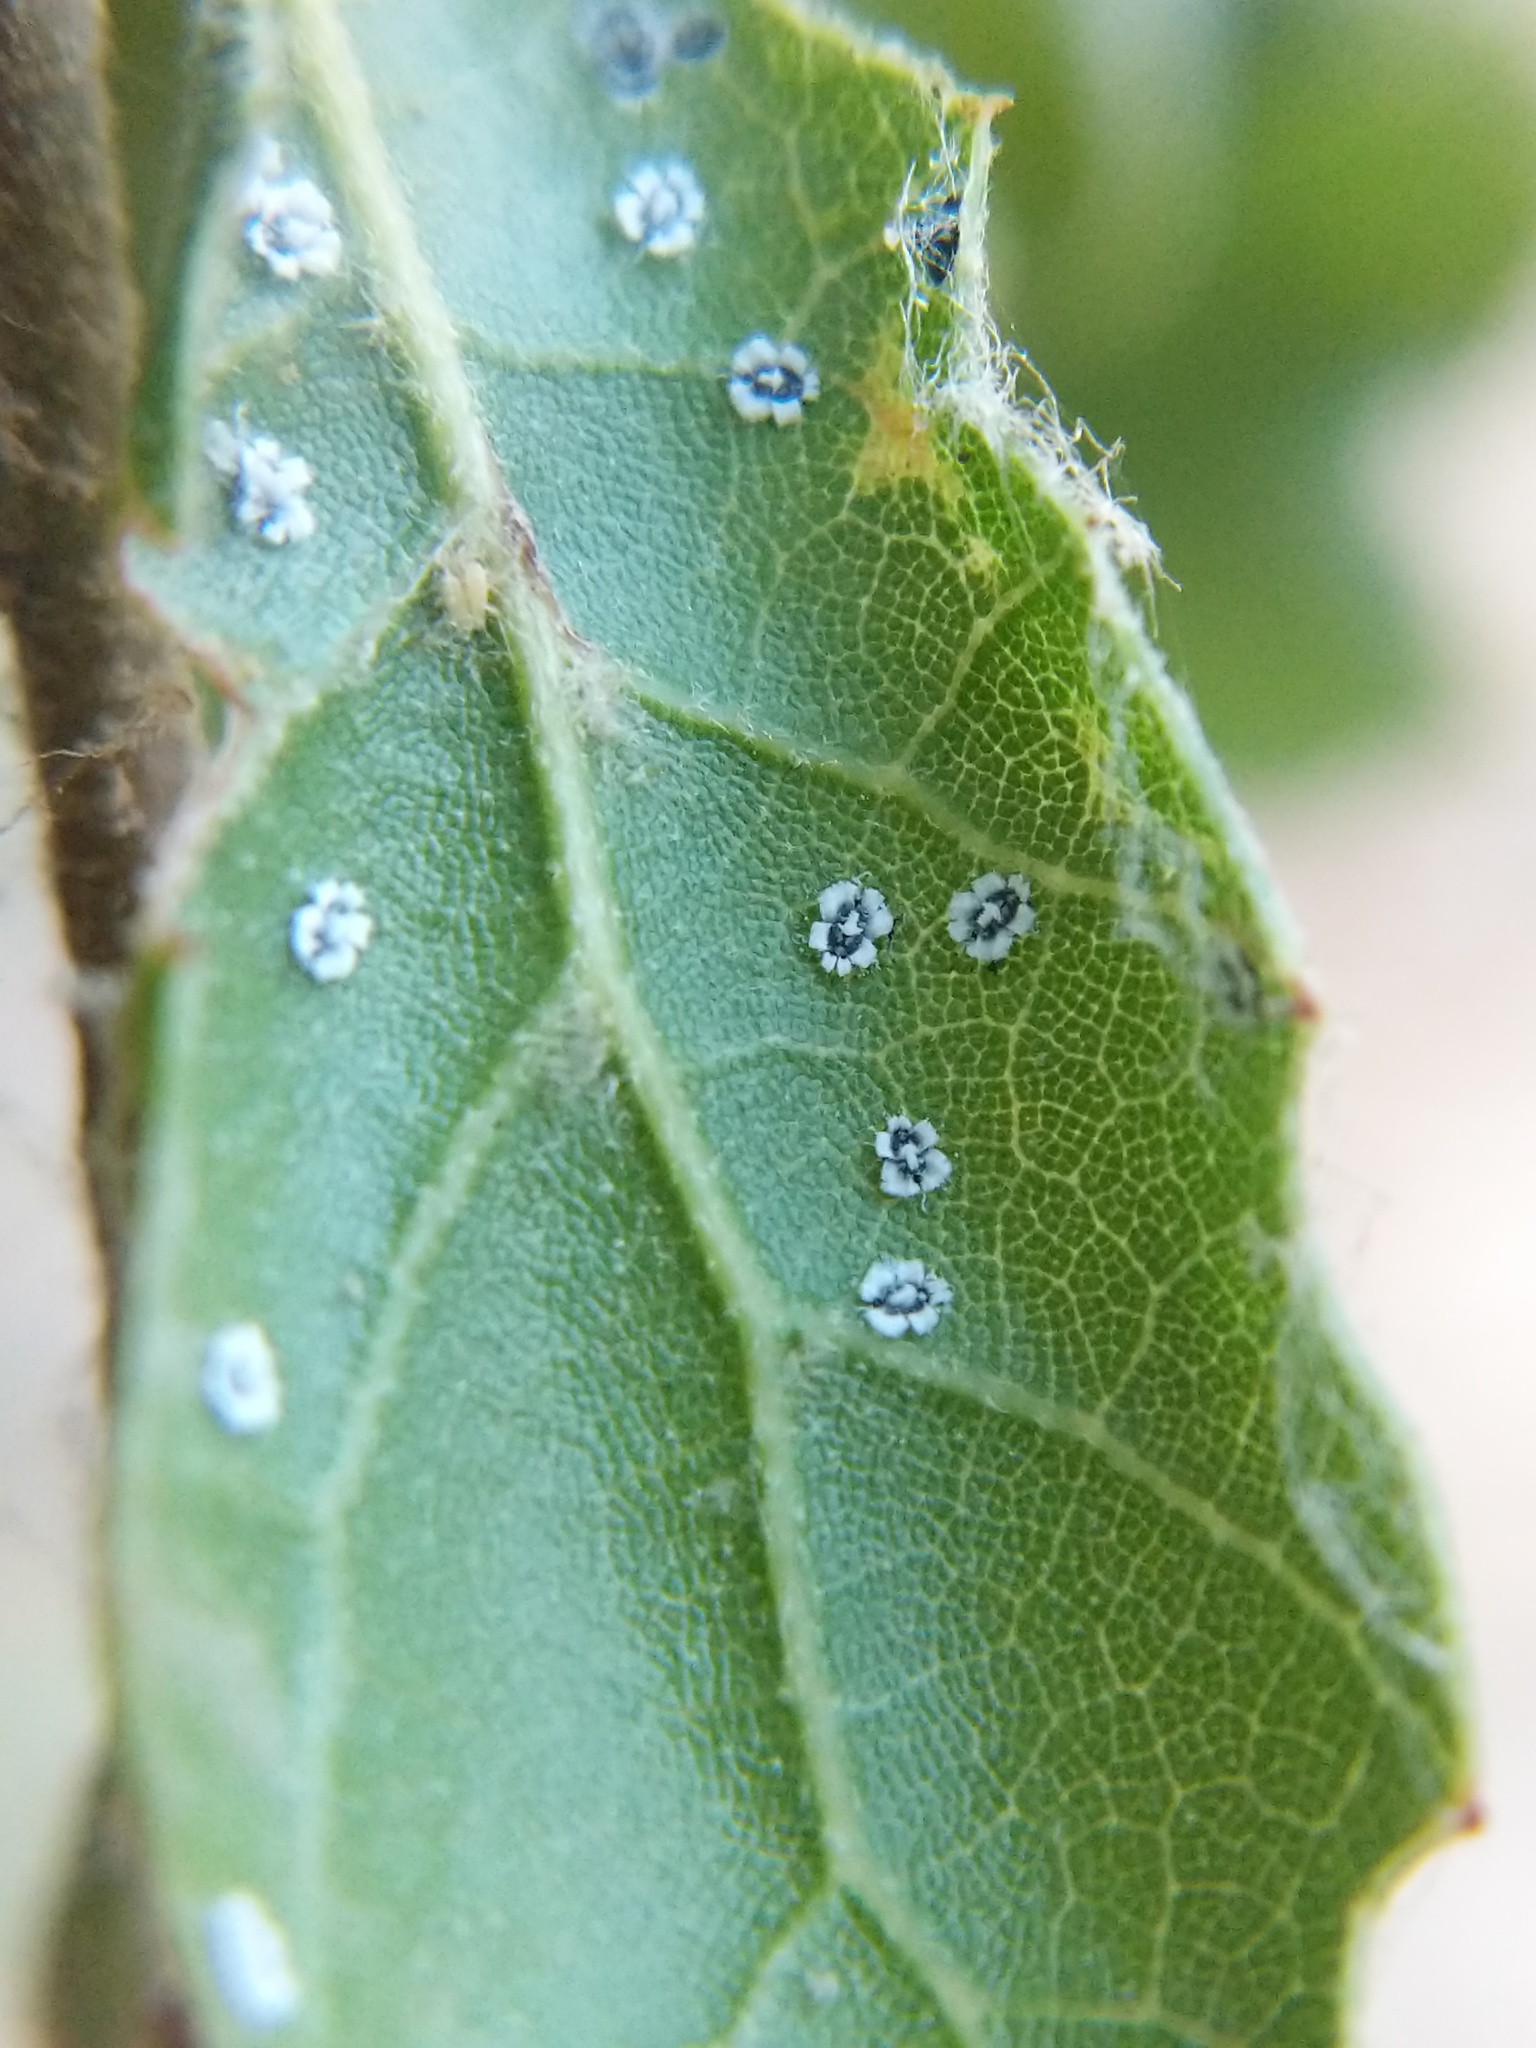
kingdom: Animalia
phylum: Arthropoda
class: Insecta
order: Hemiptera
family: Aleyrodidae
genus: Aleuroplatus
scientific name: Aleuroplatus coronata
